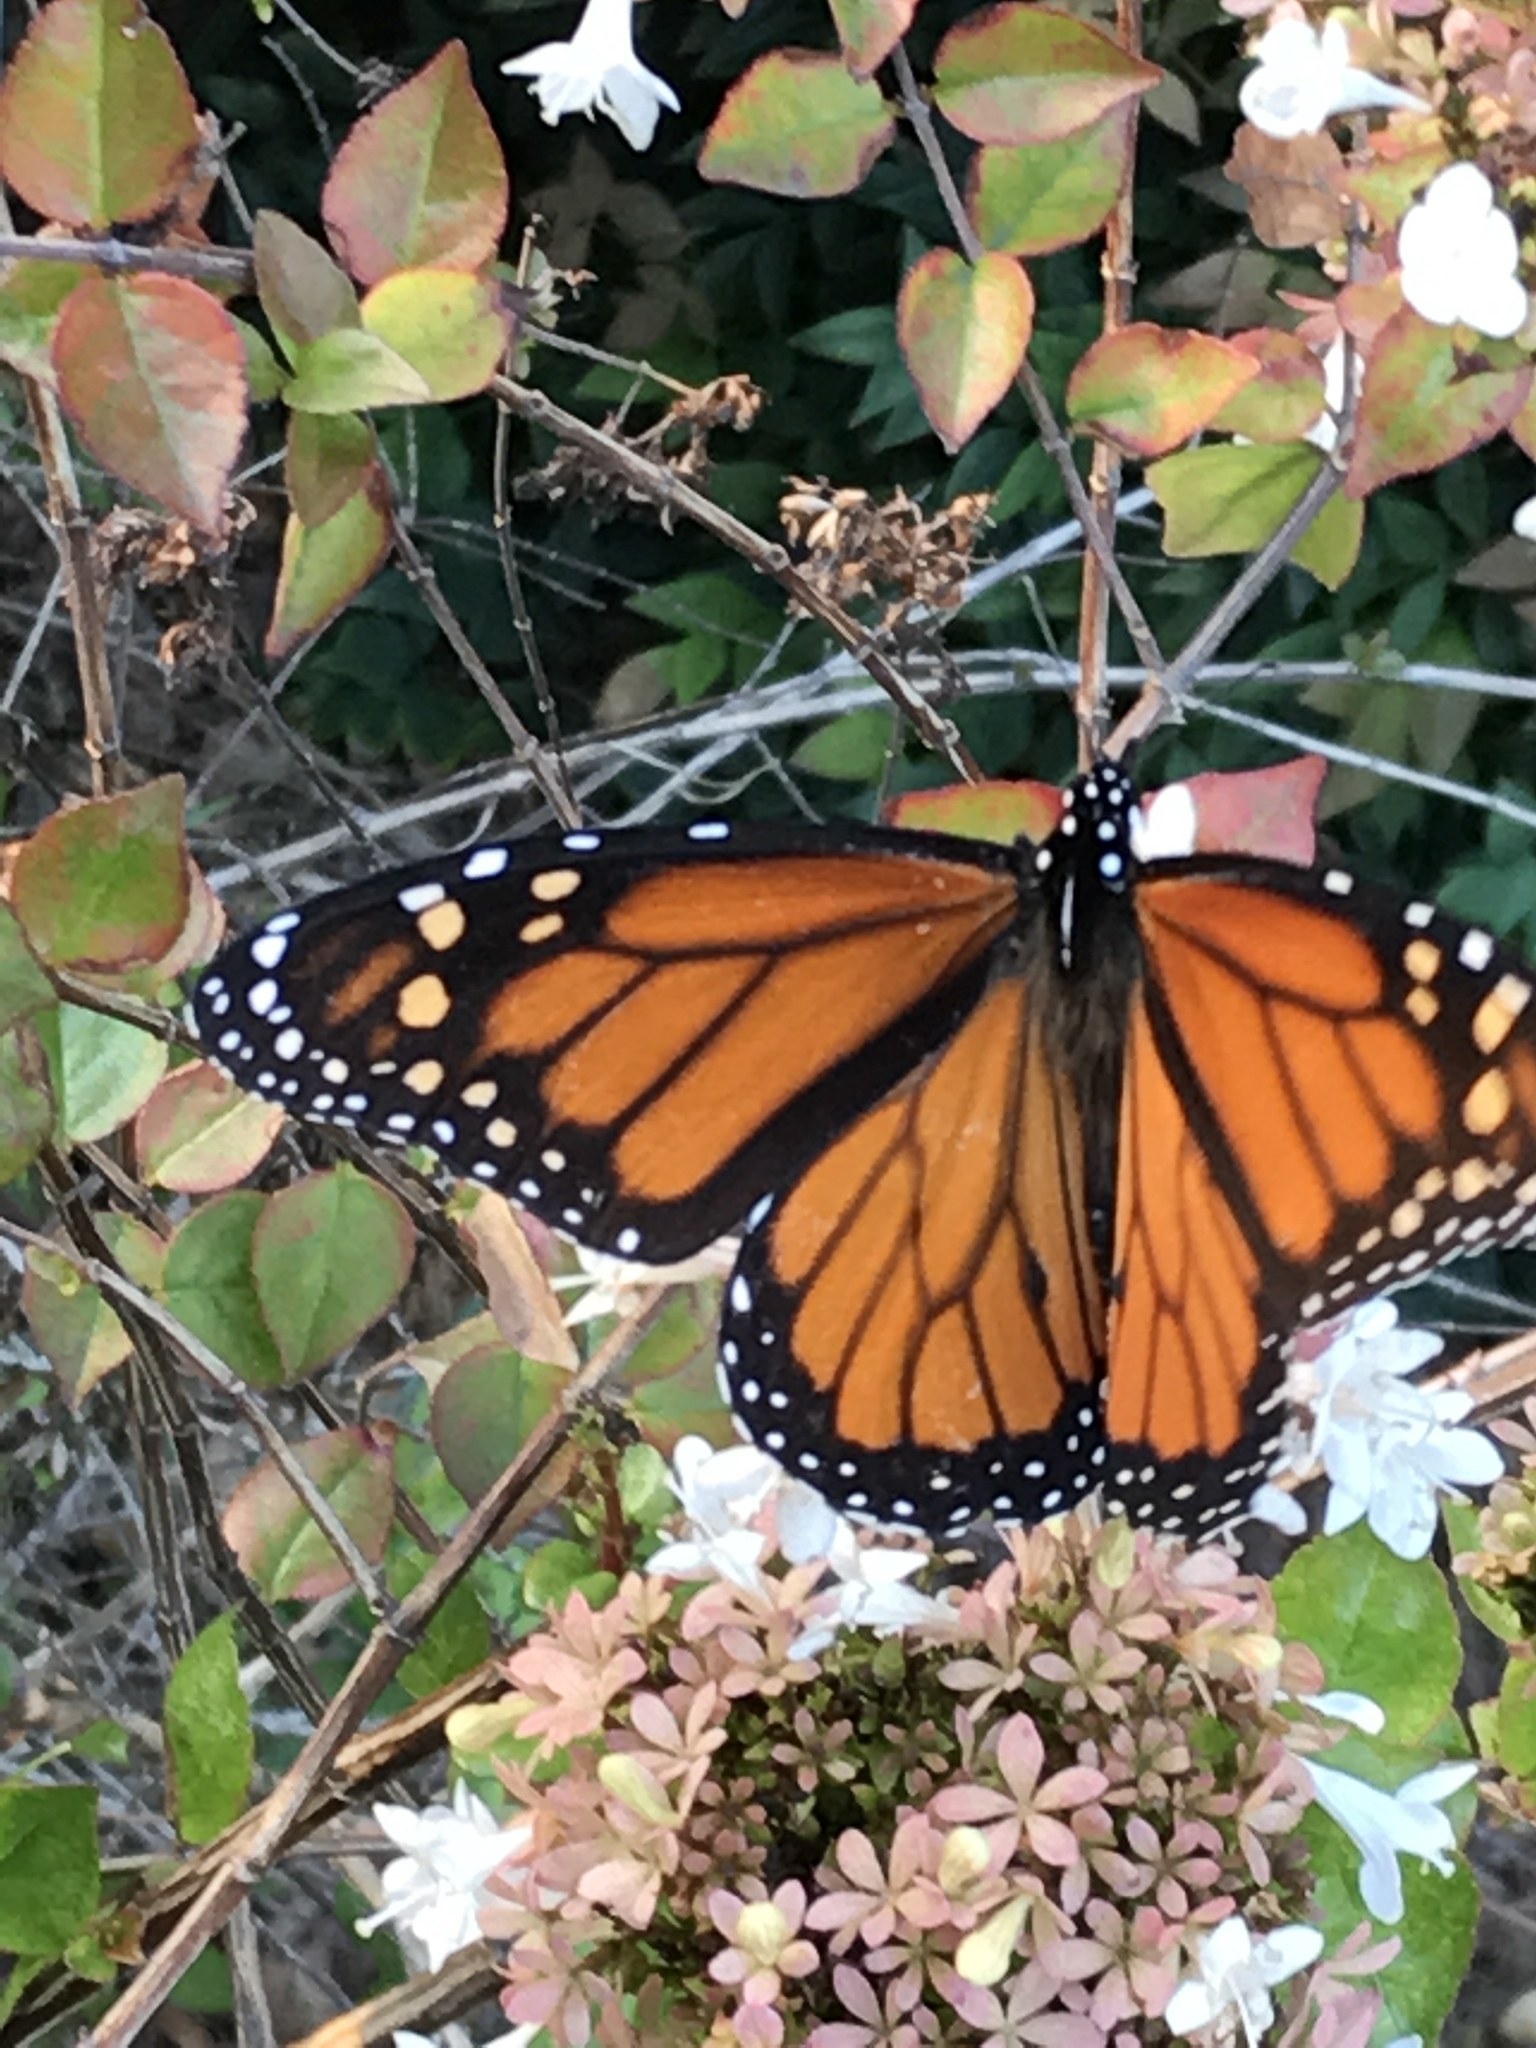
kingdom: Animalia
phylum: Arthropoda
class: Insecta
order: Lepidoptera
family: Nymphalidae
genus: Danaus
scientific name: Danaus plexippus
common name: Monarch
